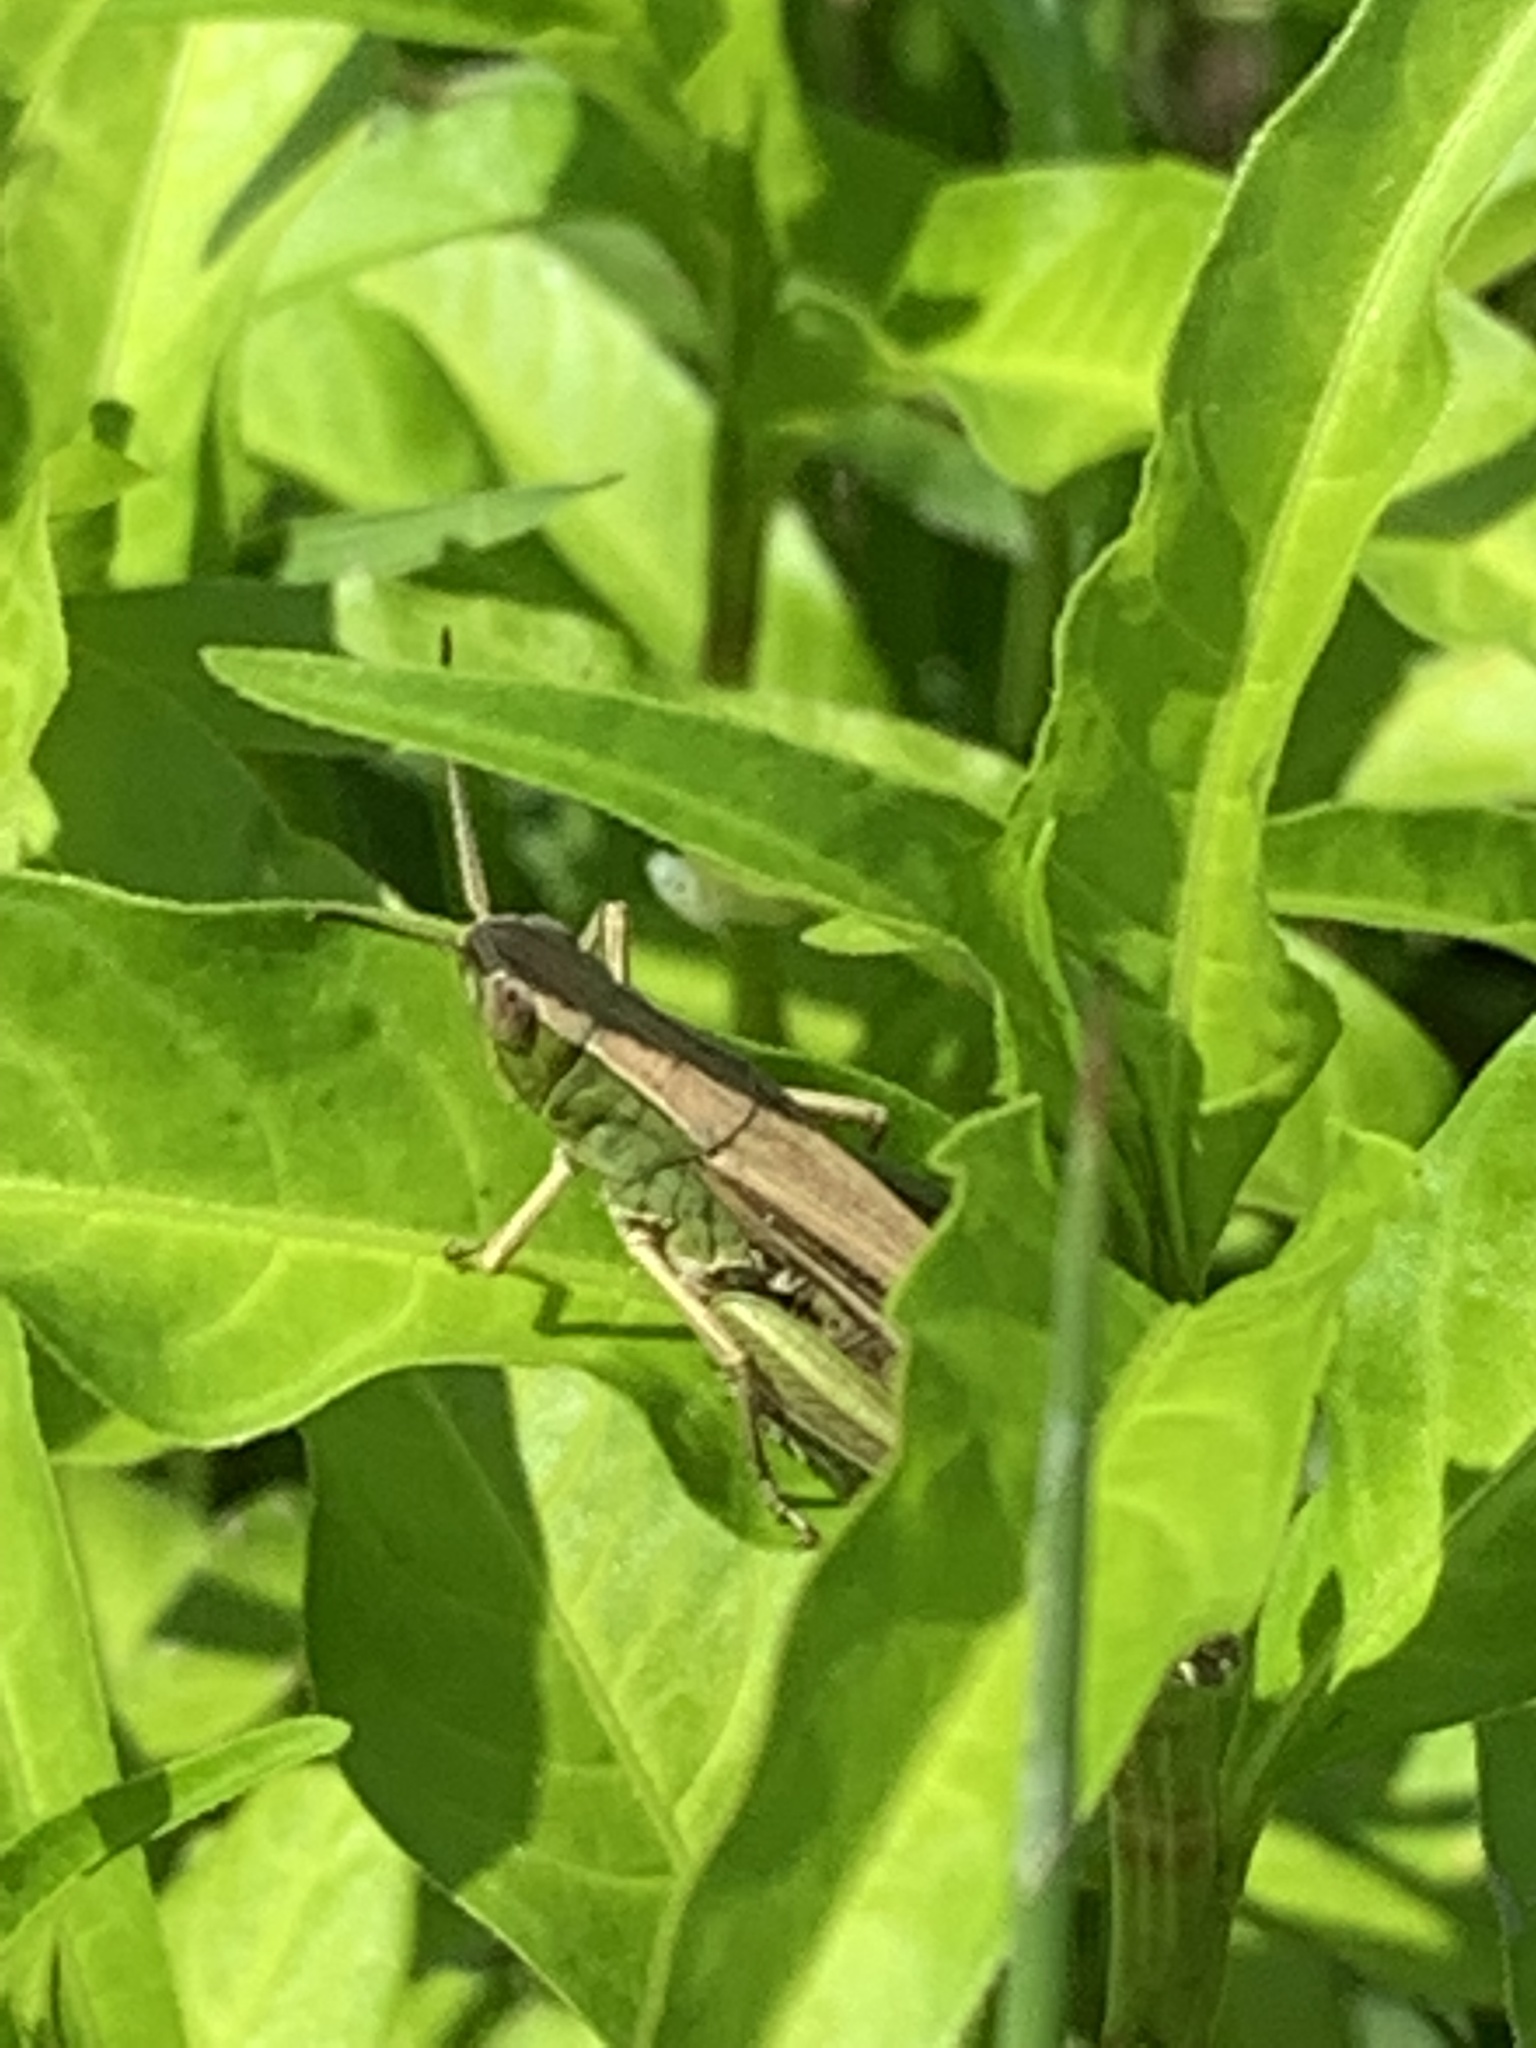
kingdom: Animalia
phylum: Arthropoda
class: Insecta
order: Orthoptera
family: Acrididae
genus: Chorthippus
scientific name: Chorthippus albomarginatus
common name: Lesser marsh grasshopper
